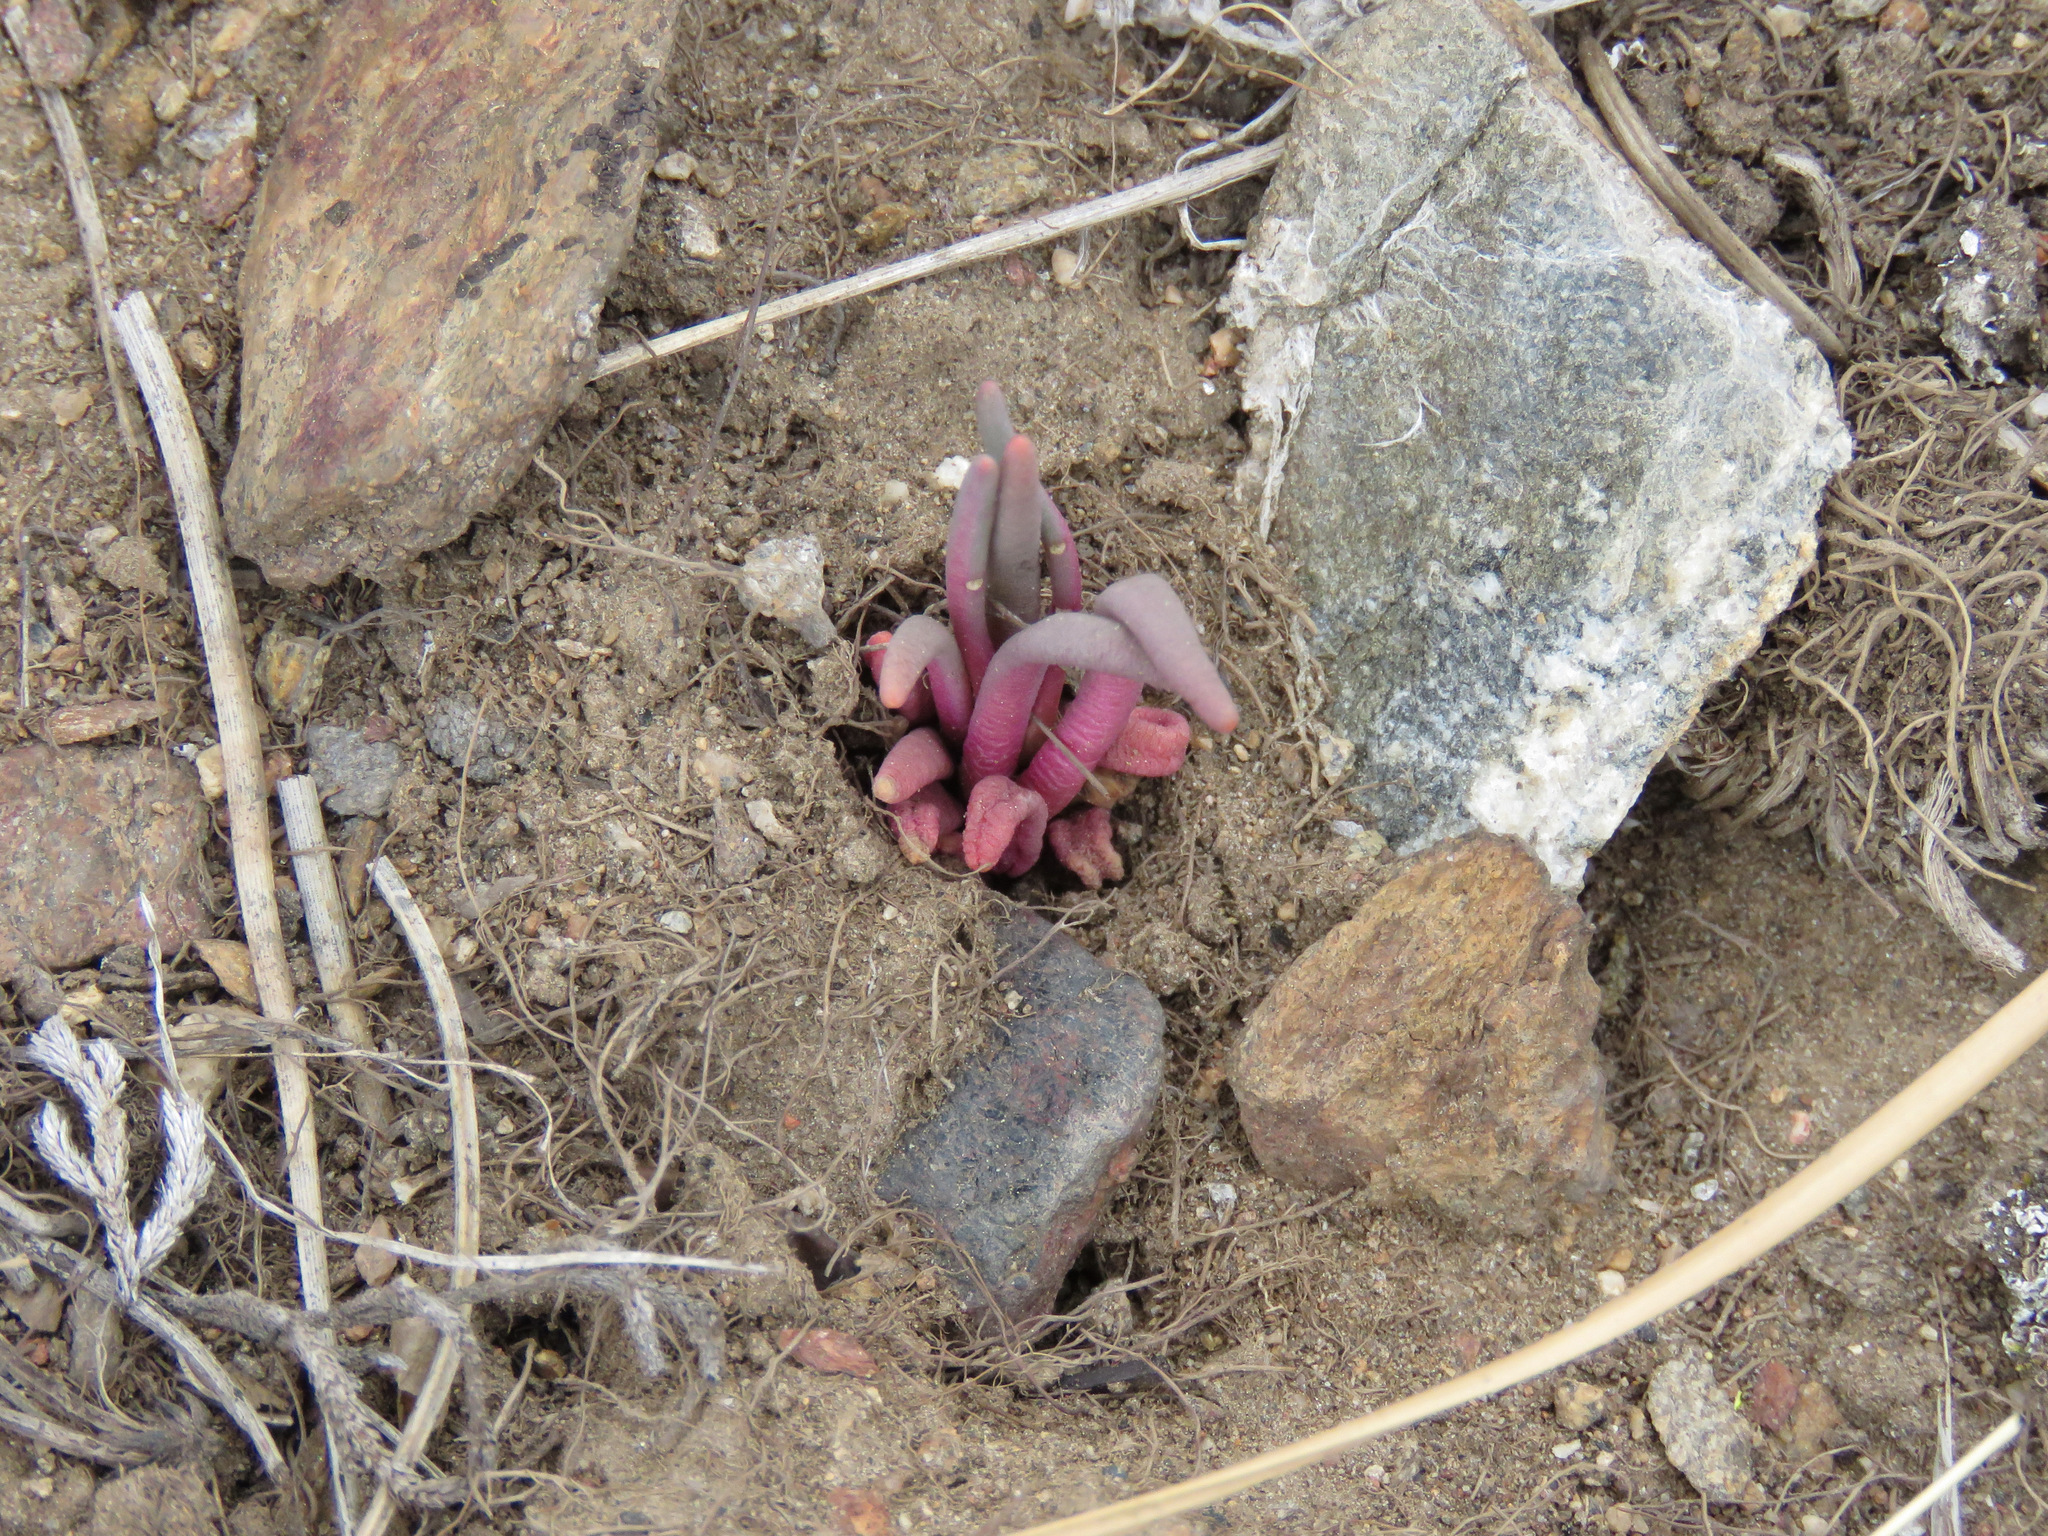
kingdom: Plantae
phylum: Tracheophyta
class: Magnoliopsida
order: Caryophyllales
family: Montiaceae
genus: Lewisia
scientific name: Lewisia rediviva
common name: Bitter-root
